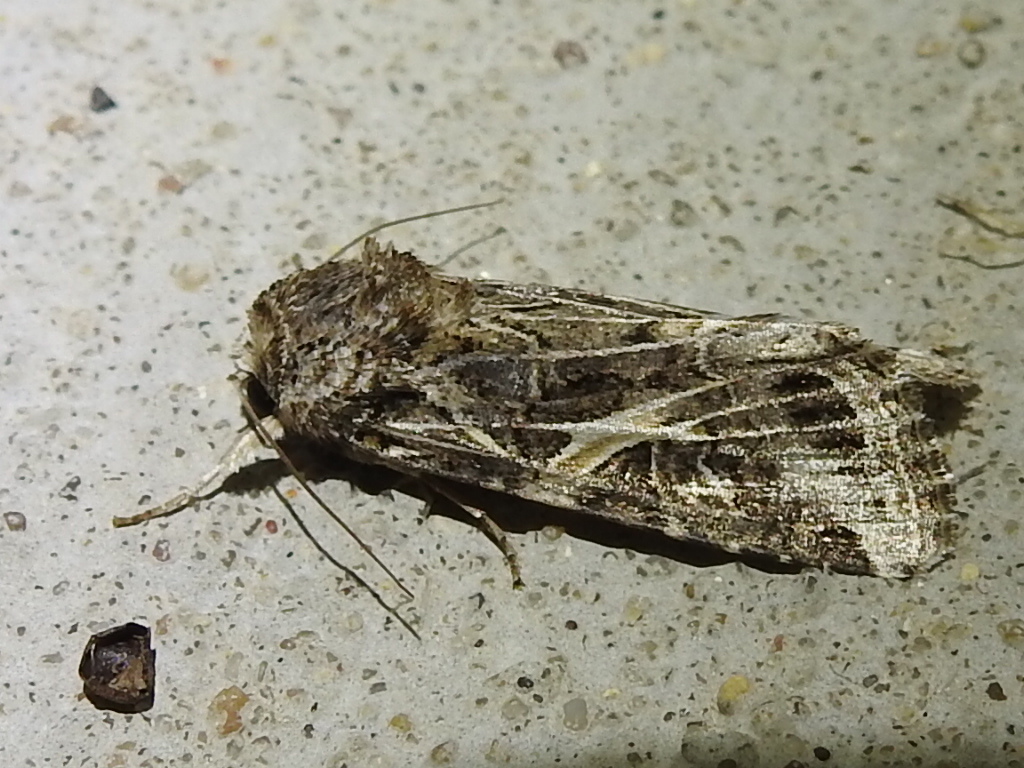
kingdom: Animalia
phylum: Arthropoda
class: Insecta
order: Lepidoptera
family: Noctuidae
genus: Spodoptera
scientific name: Spodoptera ornithogalli
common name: Yellow-striped armyworm
